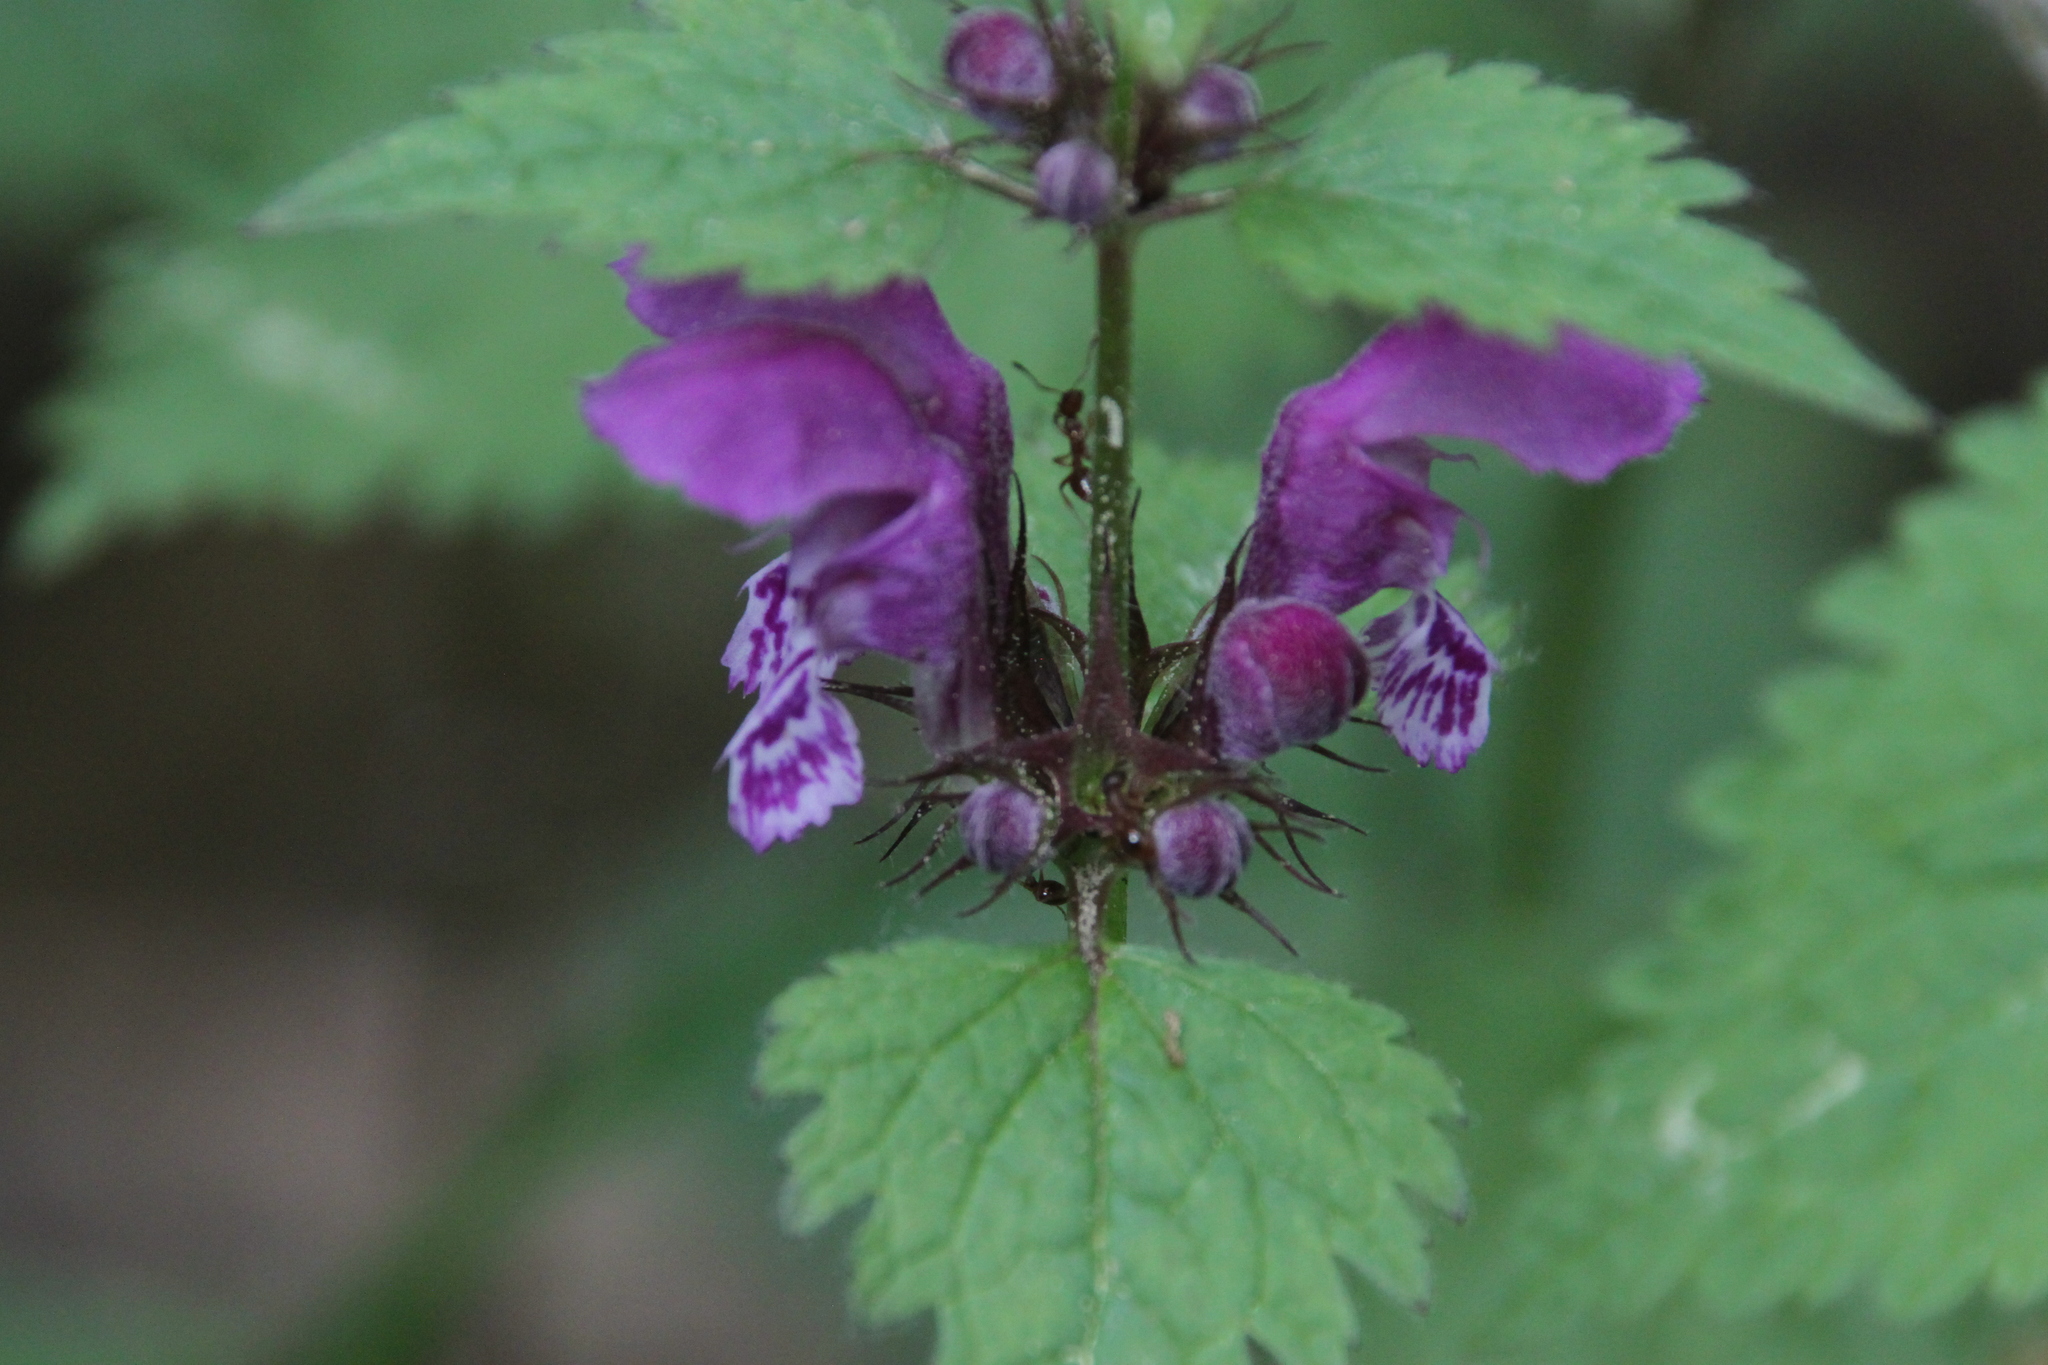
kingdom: Plantae
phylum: Tracheophyta
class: Magnoliopsida
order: Lamiales
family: Lamiaceae
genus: Lamium
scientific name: Lamium maculatum
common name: Spotted dead-nettle
